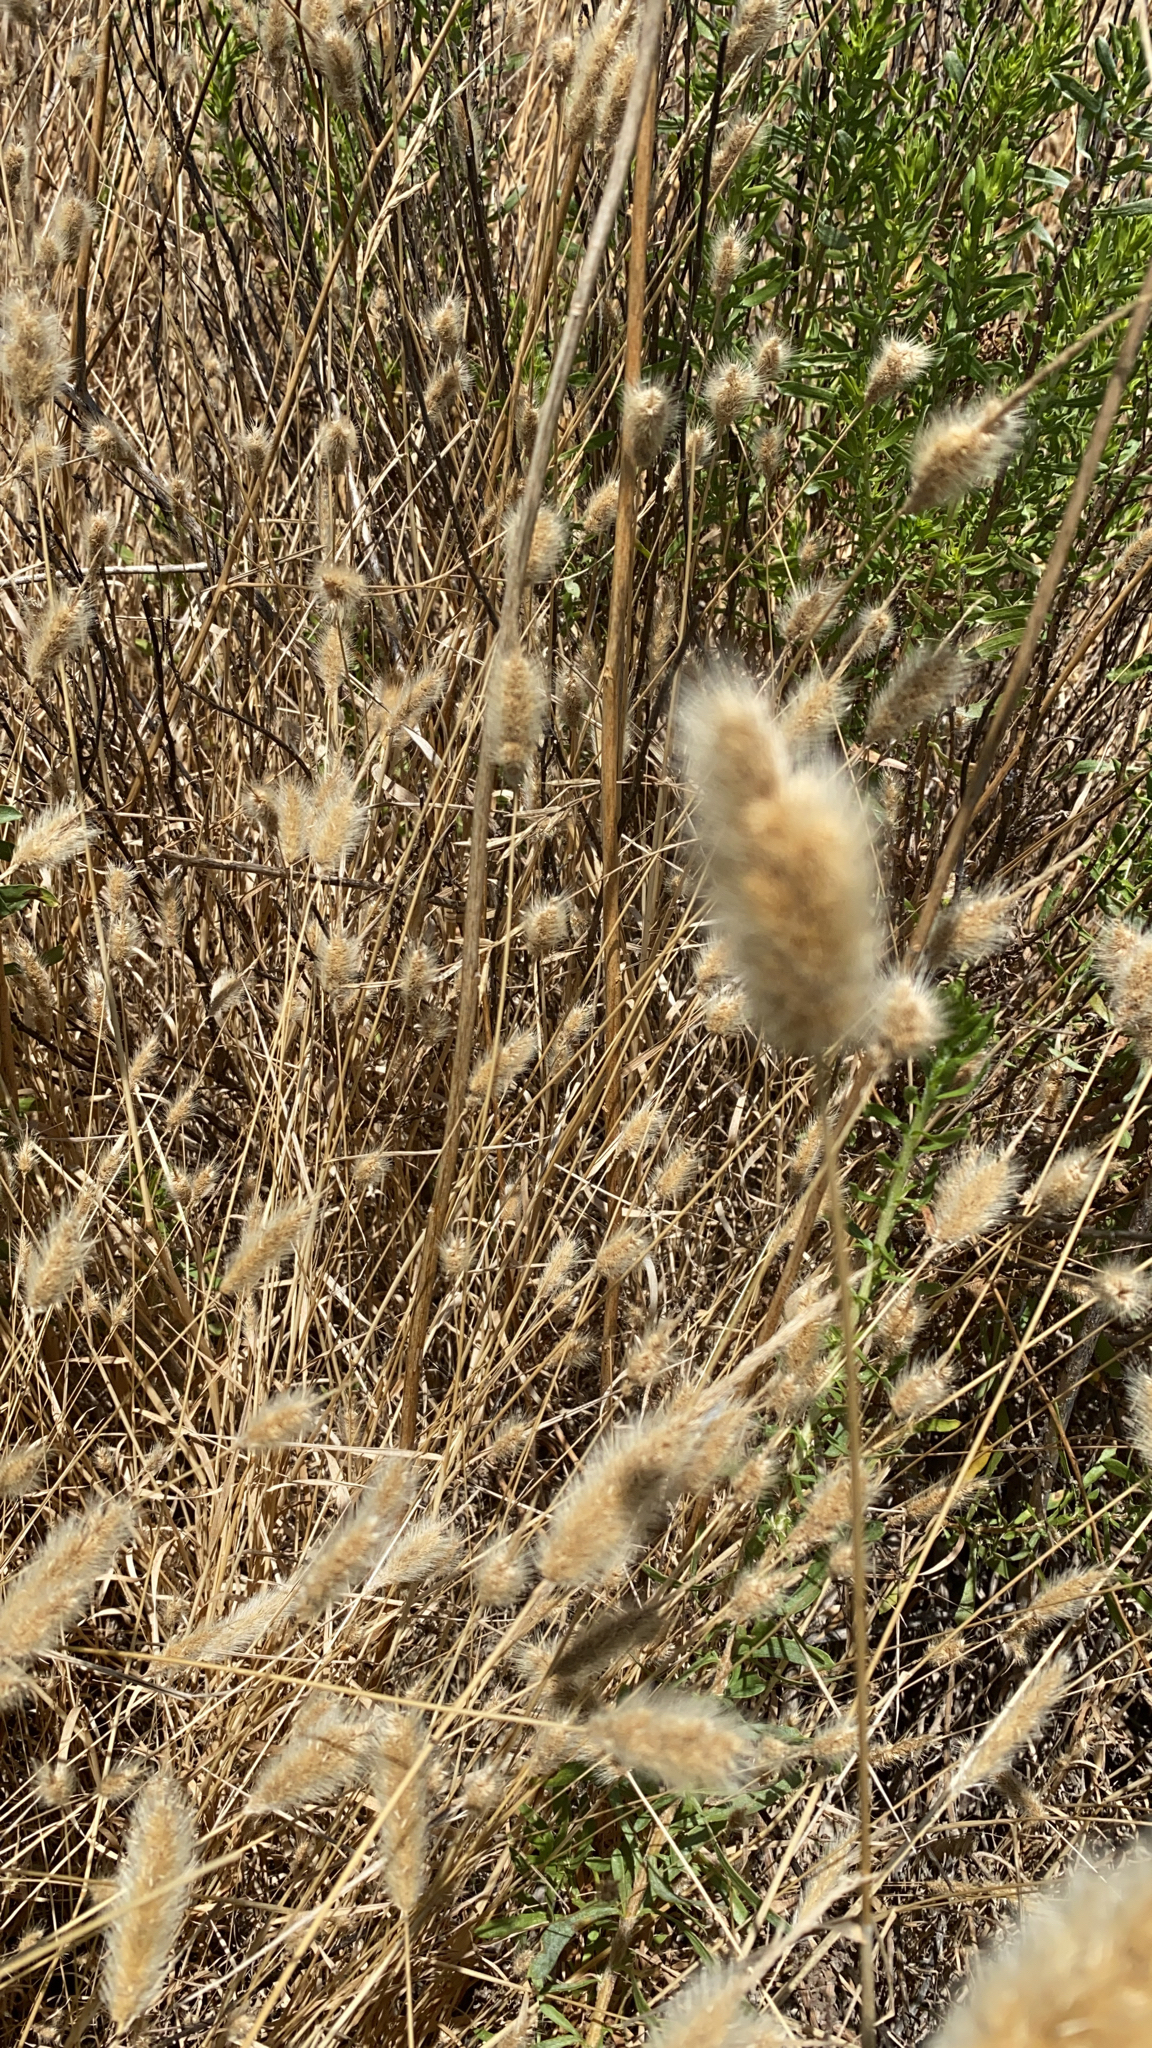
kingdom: Plantae
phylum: Tracheophyta
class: Liliopsida
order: Poales
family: Poaceae
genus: Polypogon
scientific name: Polypogon monspeliensis
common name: Annual rabbitsfoot grass
